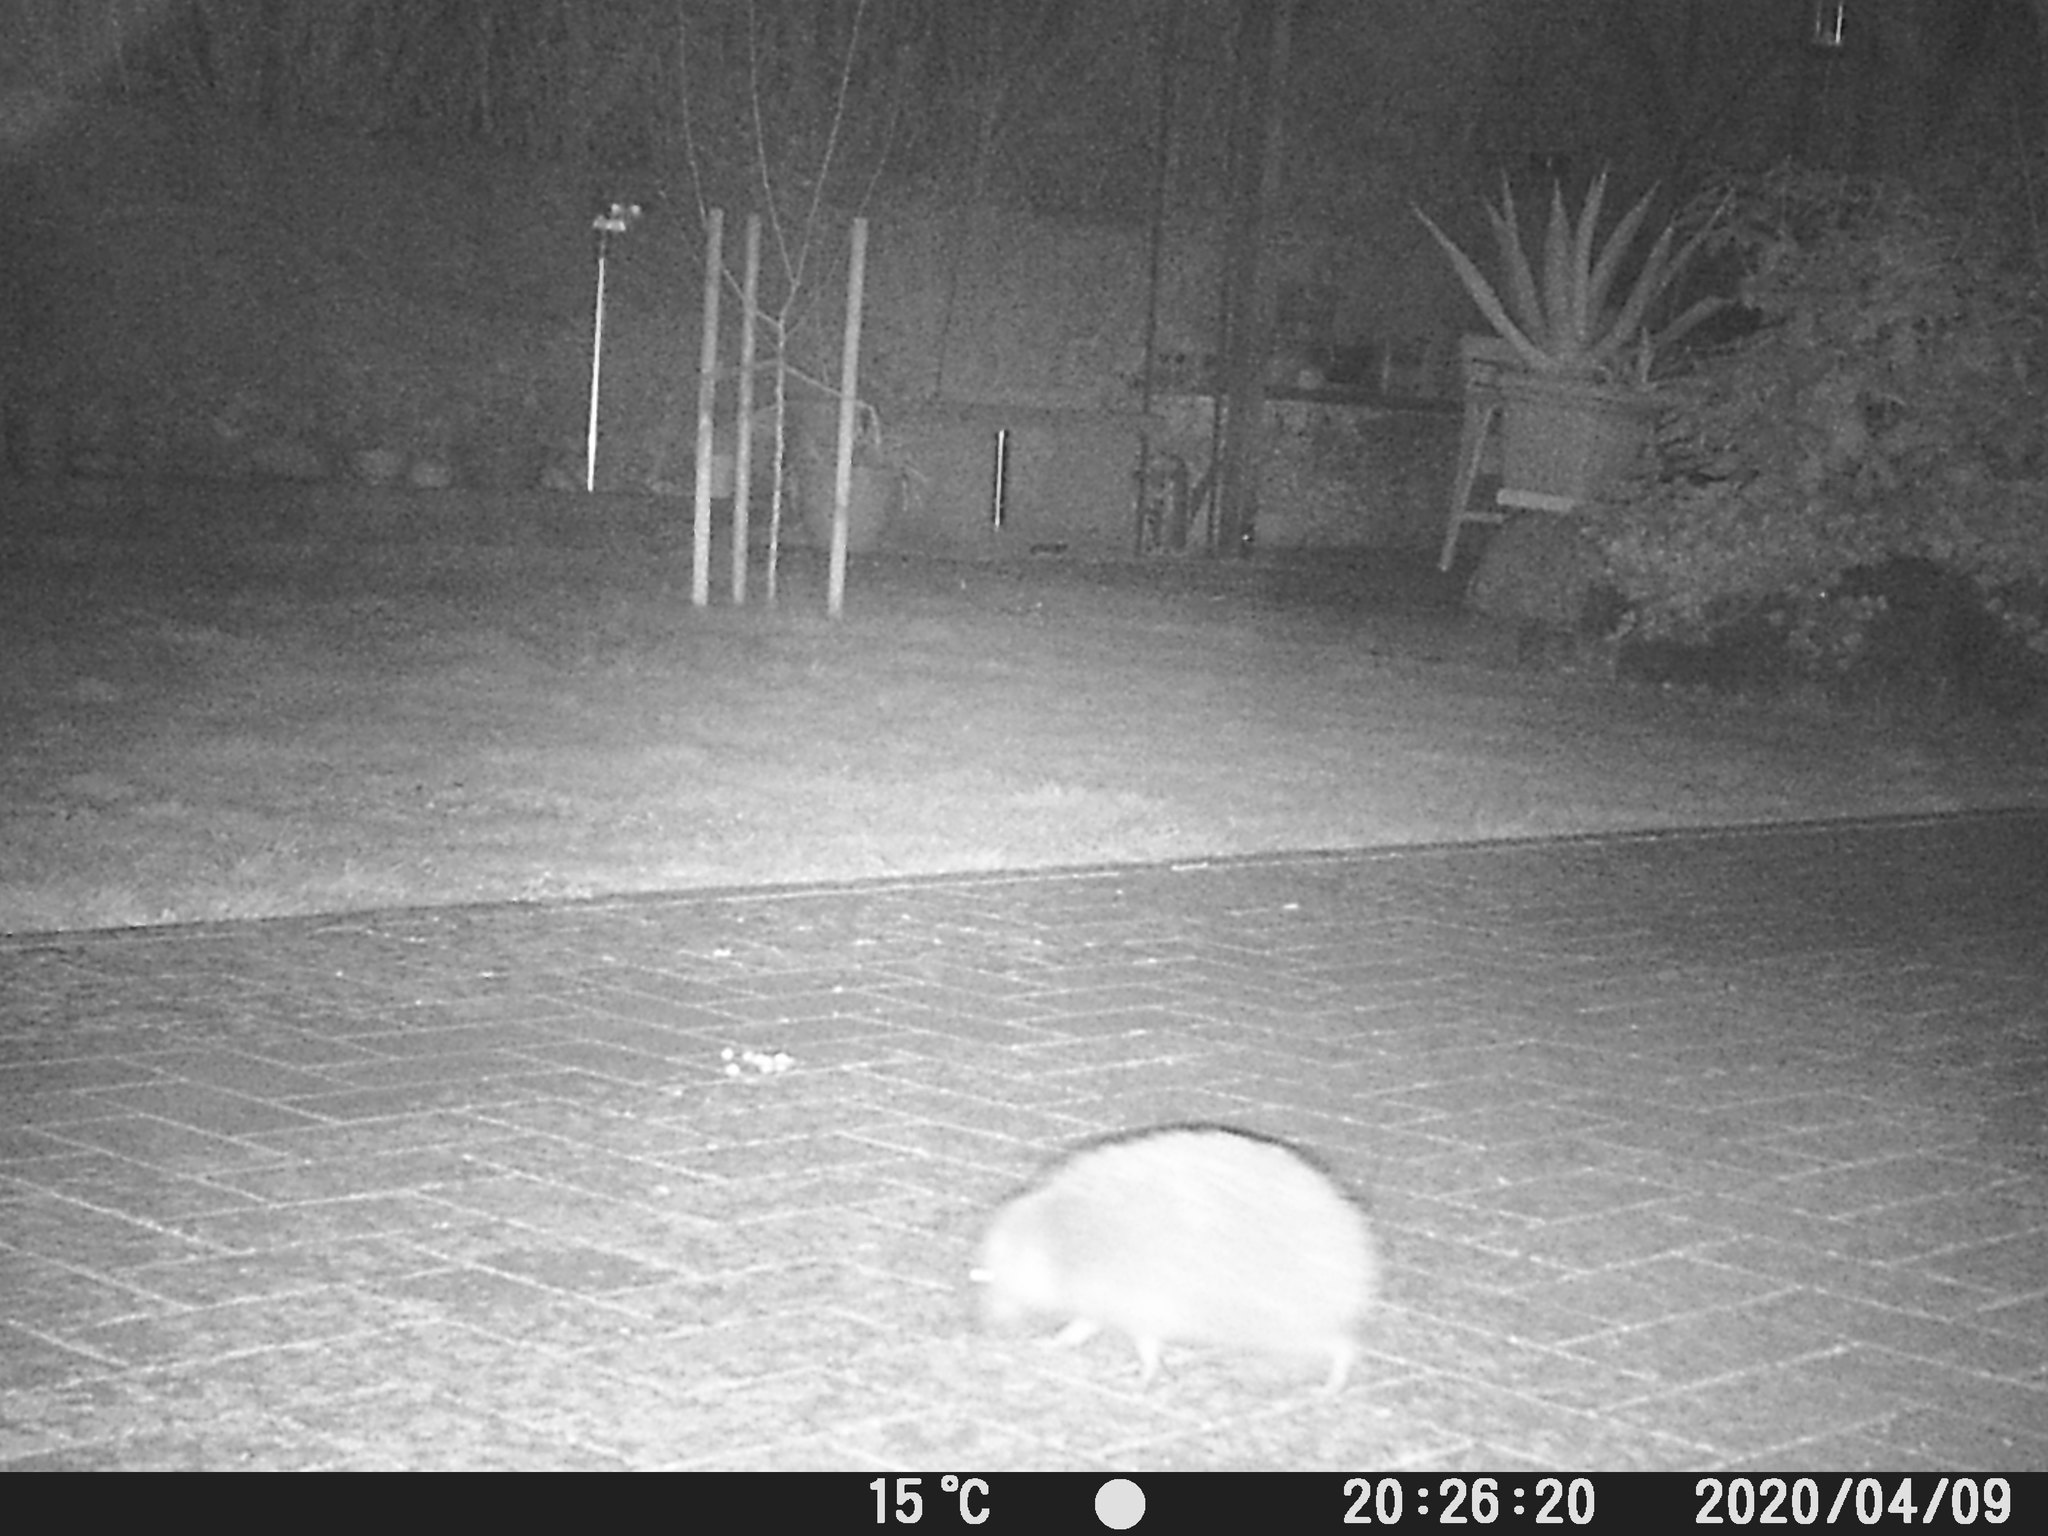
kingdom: Animalia
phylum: Chordata
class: Mammalia
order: Erinaceomorpha
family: Erinaceidae
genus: Erinaceus
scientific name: Erinaceus europaeus
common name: West european hedgehog
